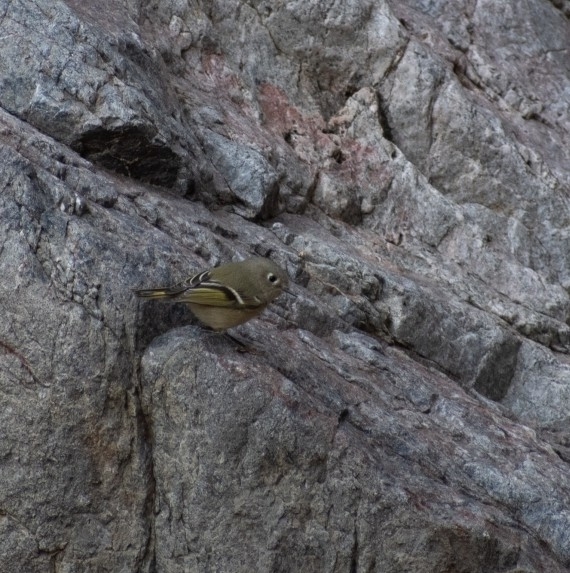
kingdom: Animalia
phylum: Chordata
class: Aves
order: Passeriformes
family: Regulidae
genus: Regulus
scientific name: Regulus calendula
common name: Ruby-crowned kinglet
